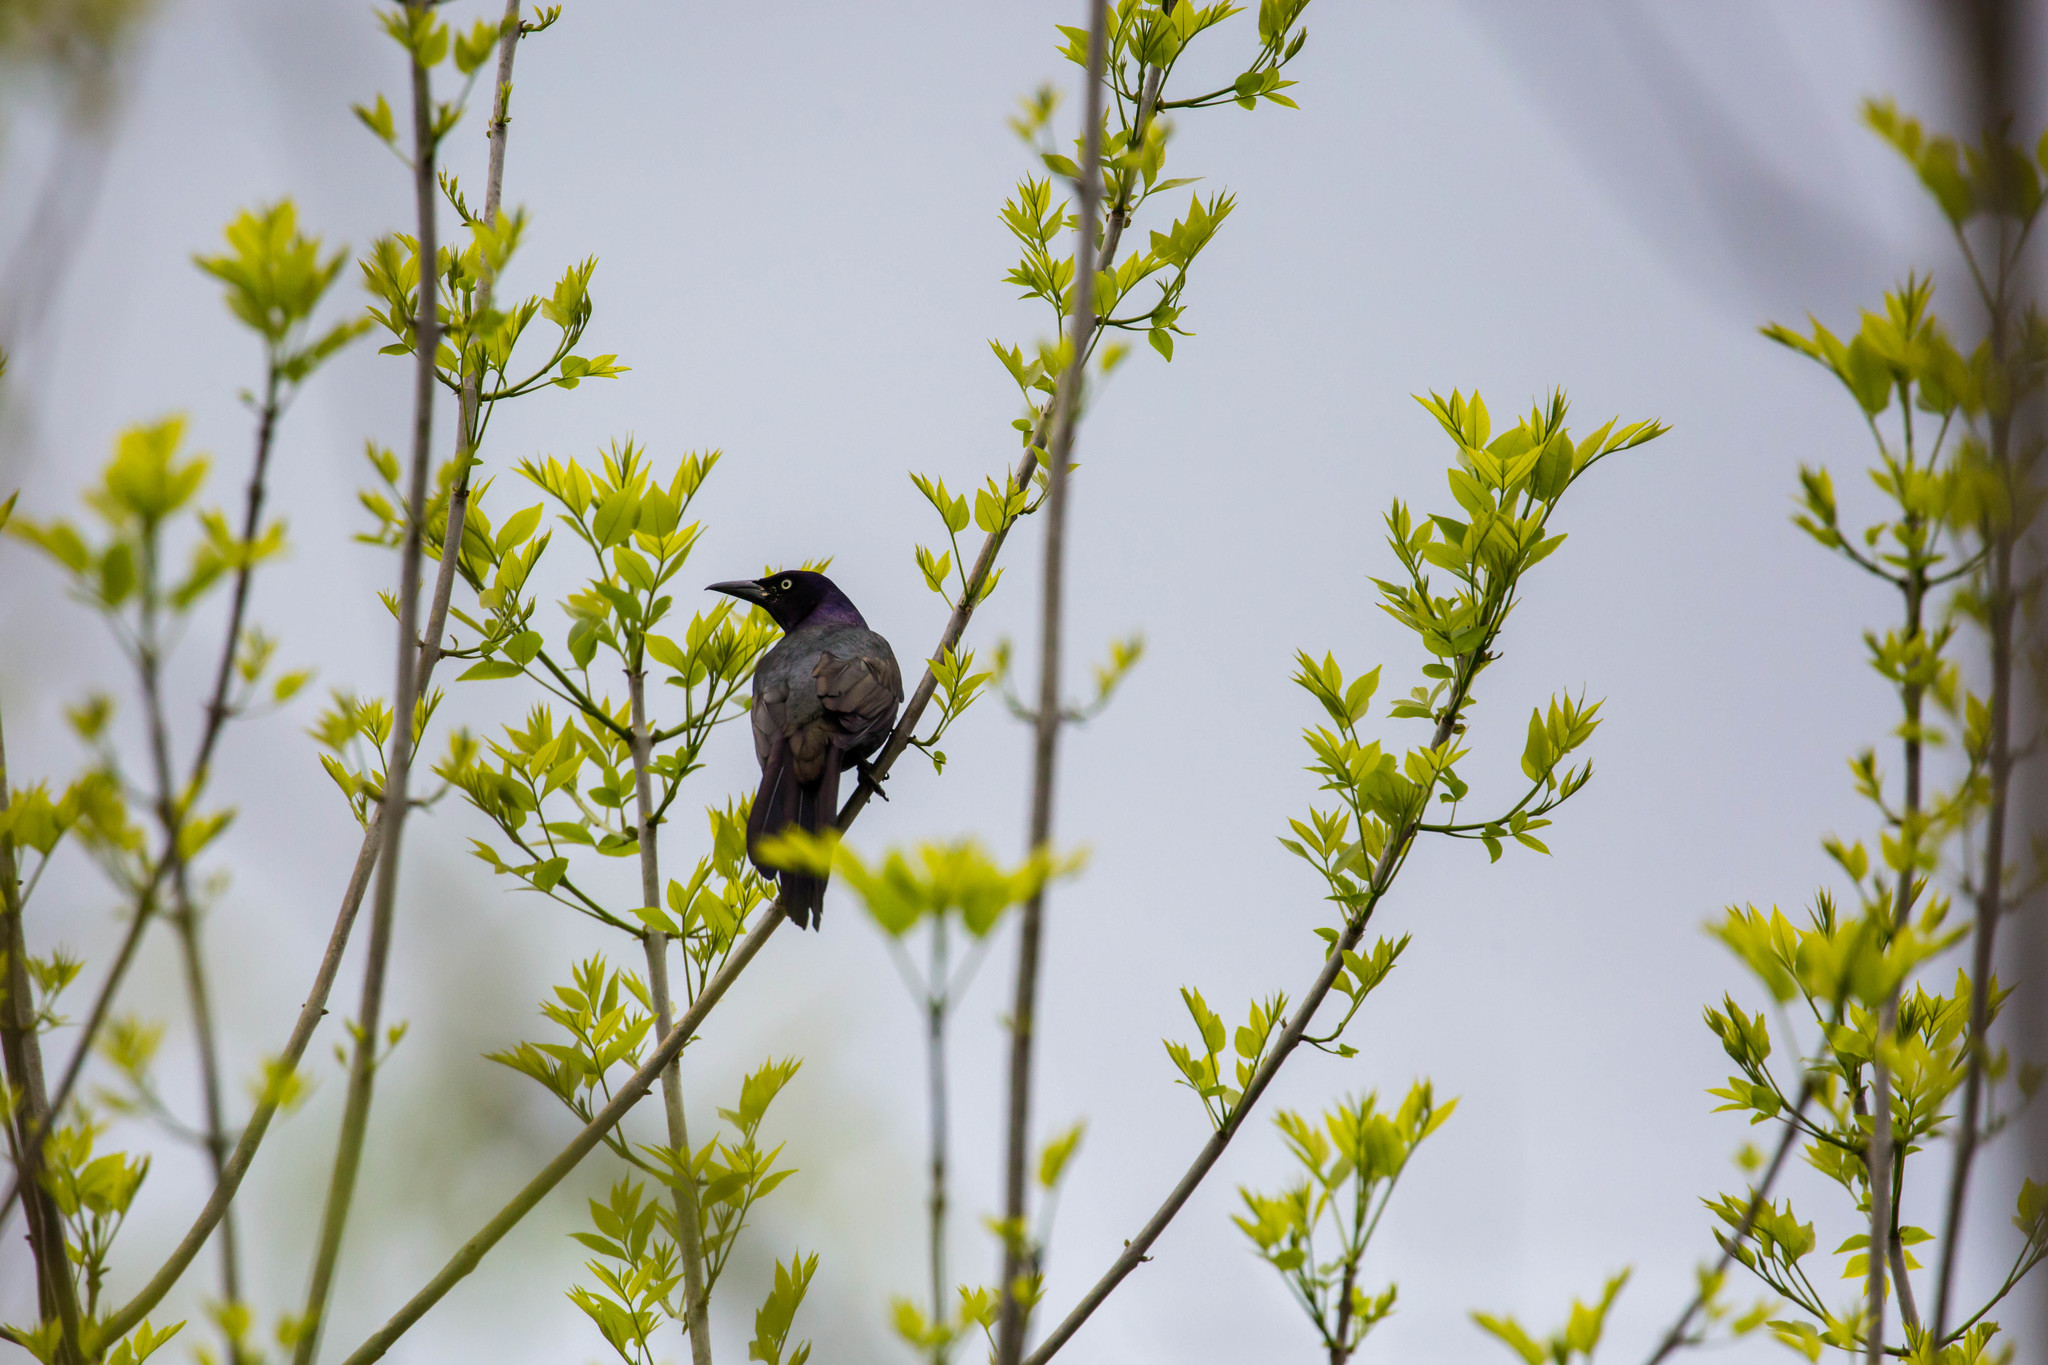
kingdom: Animalia
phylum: Chordata
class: Aves
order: Passeriformes
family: Icteridae
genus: Quiscalus
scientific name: Quiscalus quiscula
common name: Common grackle
